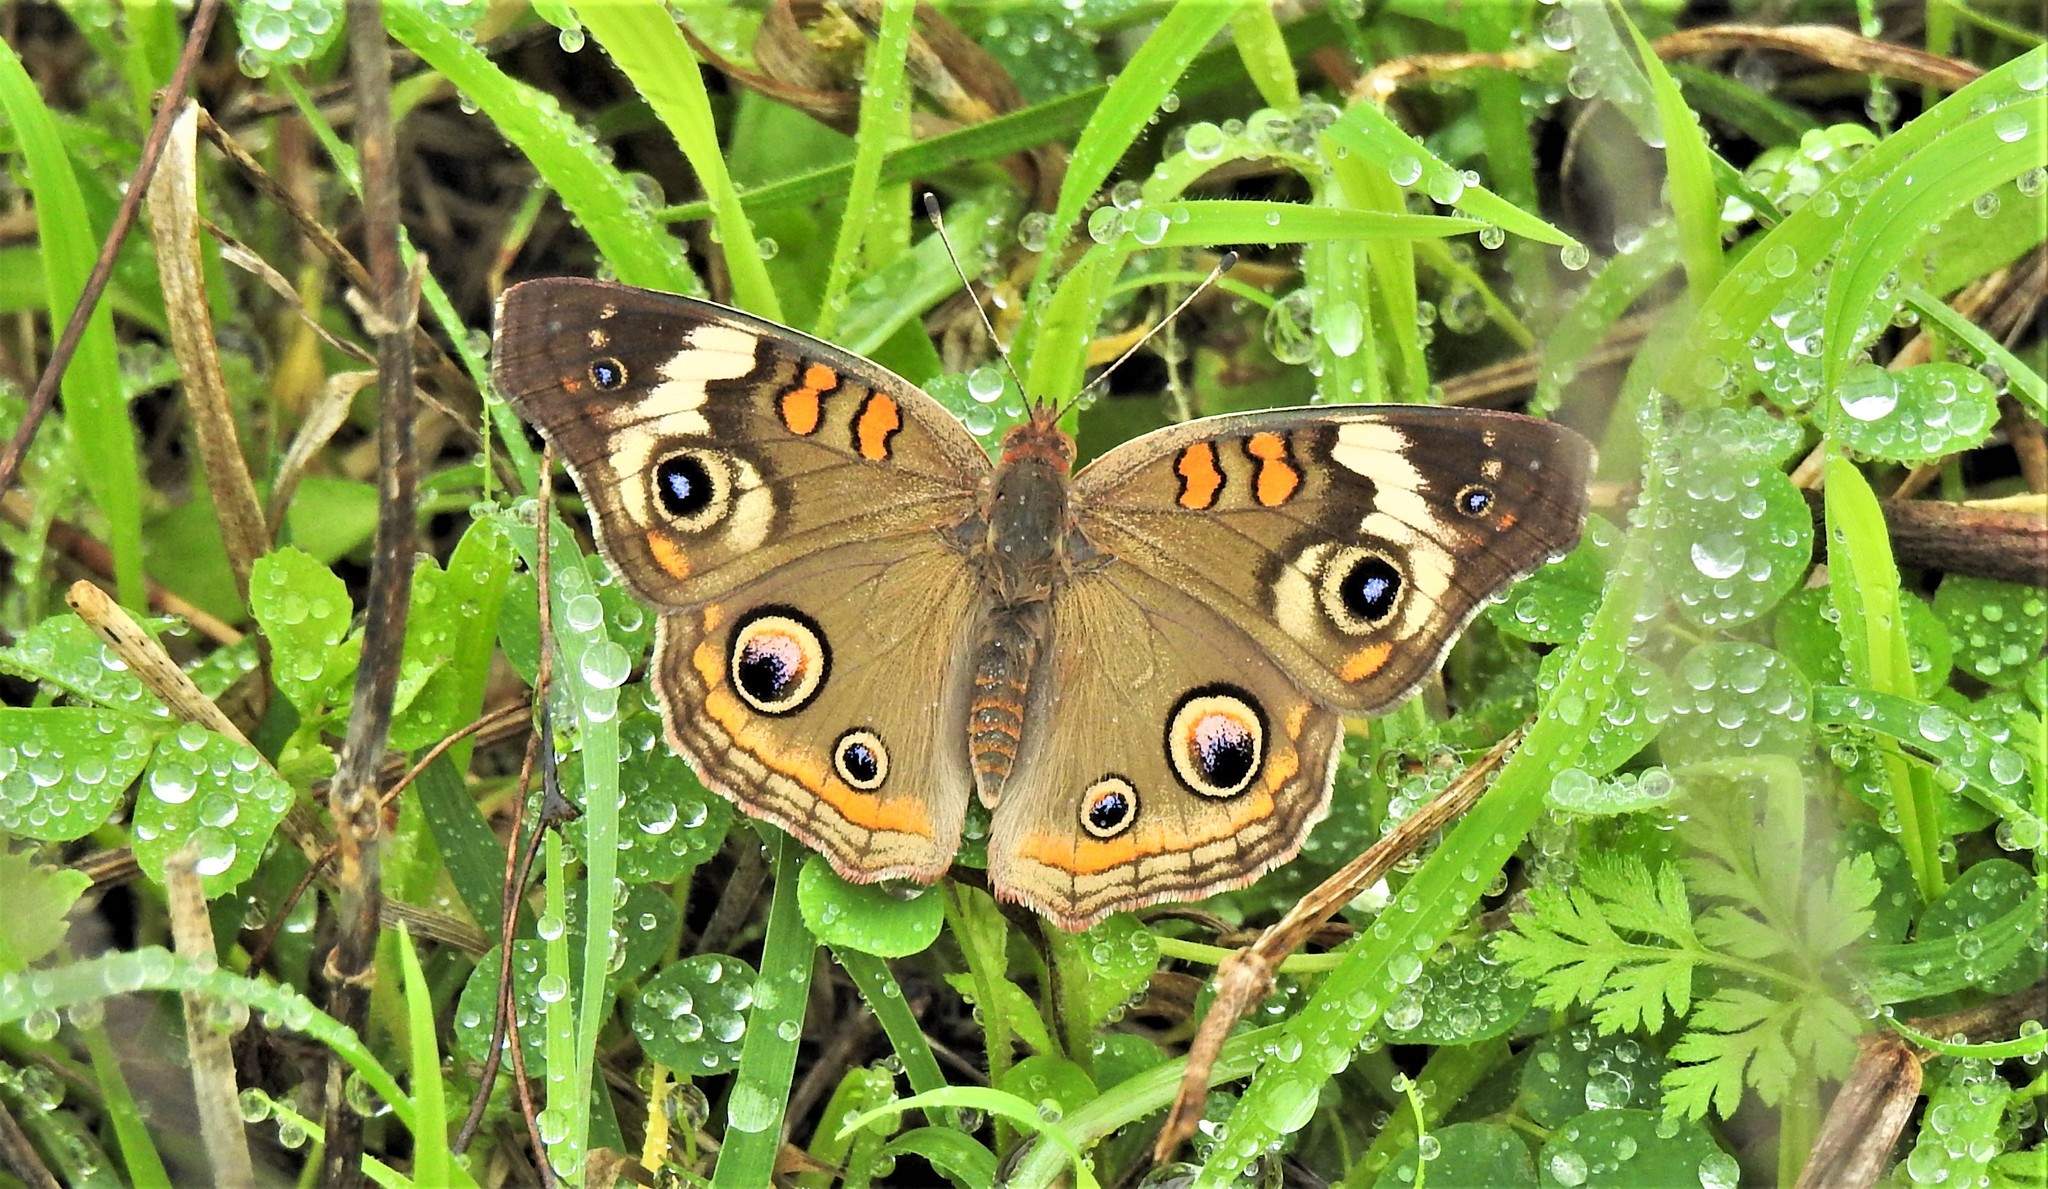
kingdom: Animalia
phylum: Arthropoda
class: Insecta
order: Lepidoptera
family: Nymphalidae
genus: Junonia
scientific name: Junonia coenia
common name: Common buckeye
